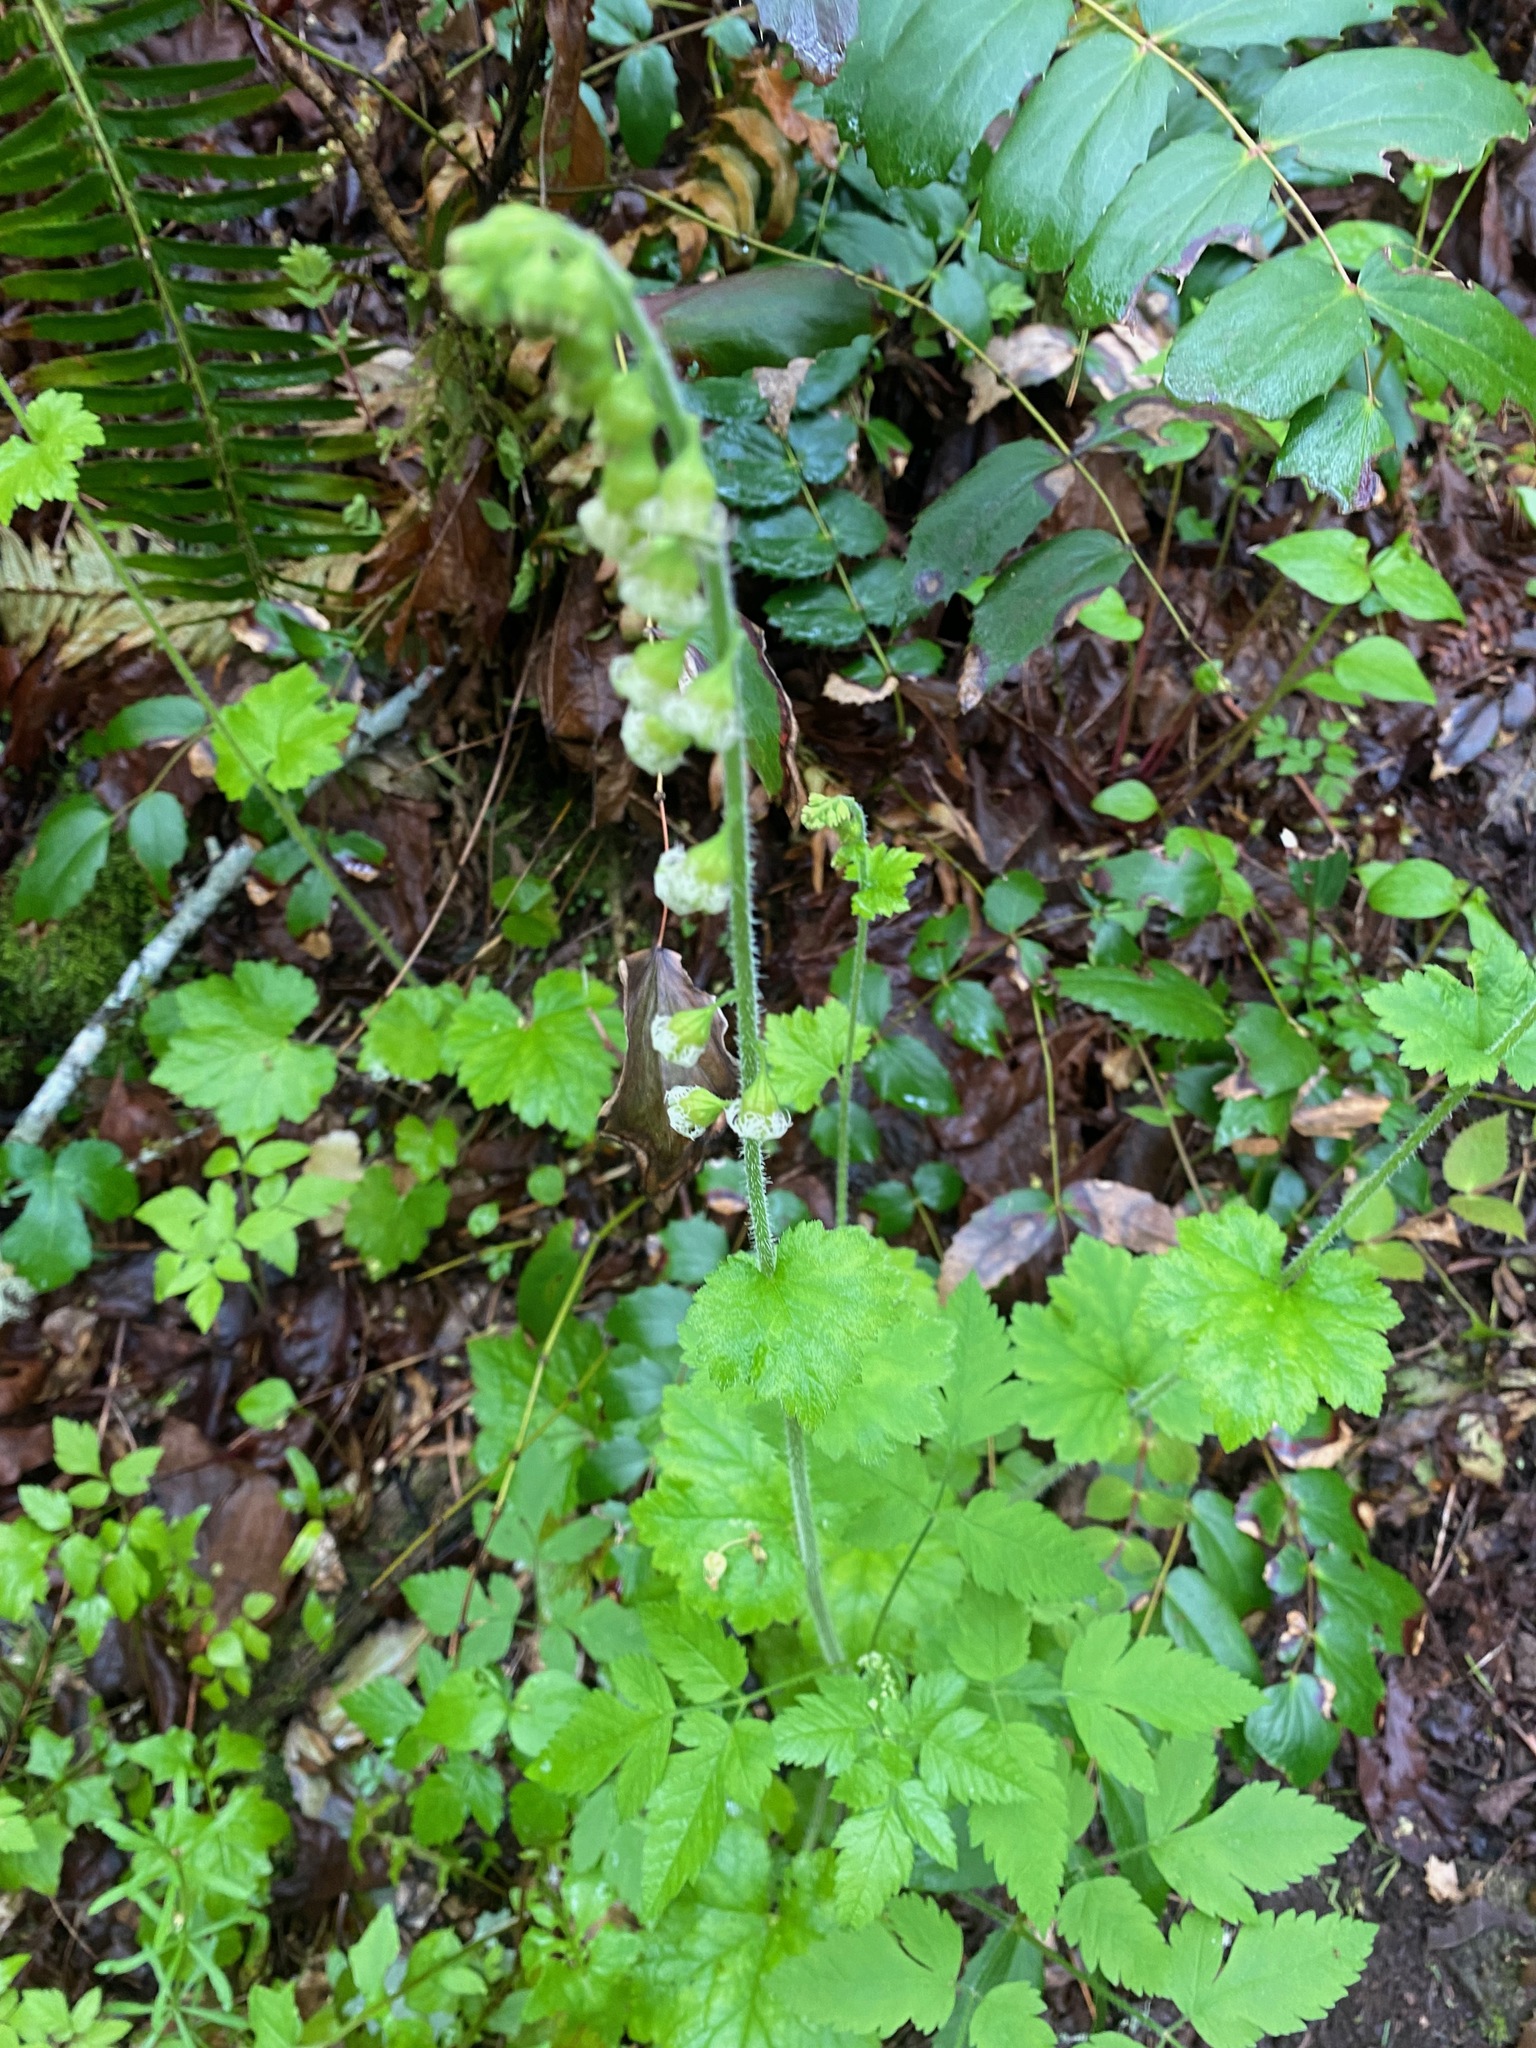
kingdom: Plantae
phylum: Tracheophyta
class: Magnoliopsida
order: Saxifragales
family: Saxifragaceae
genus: Tellima
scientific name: Tellima grandiflora
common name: Fringecups
